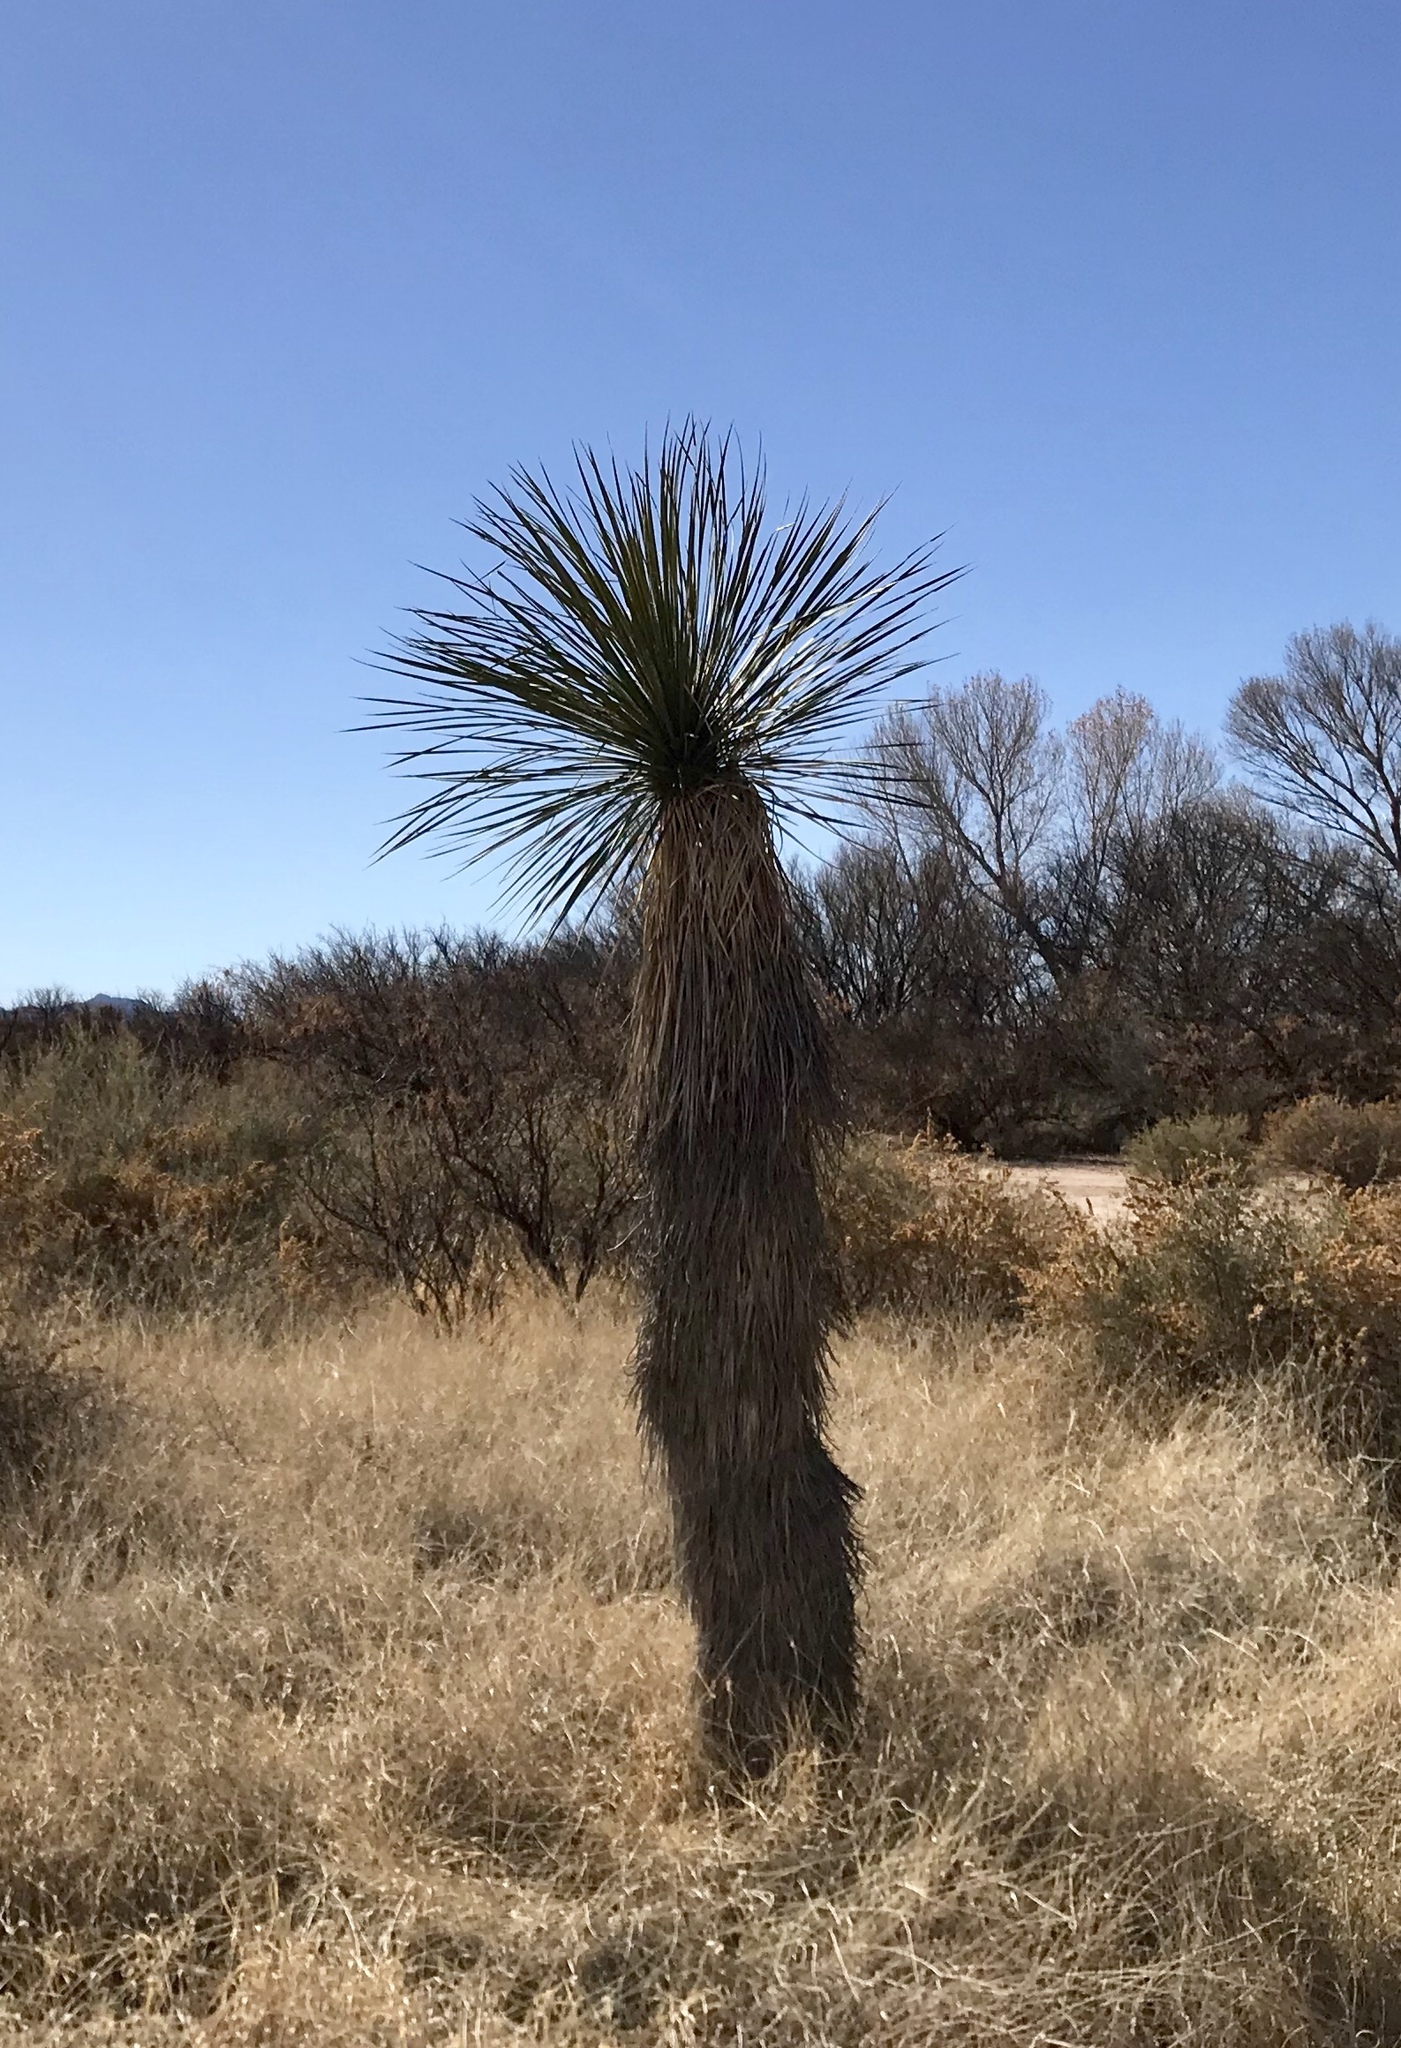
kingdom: Plantae
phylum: Tracheophyta
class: Liliopsida
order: Asparagales
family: Asparagaceae
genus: Yucca
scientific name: Yucca elata
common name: Palmella
